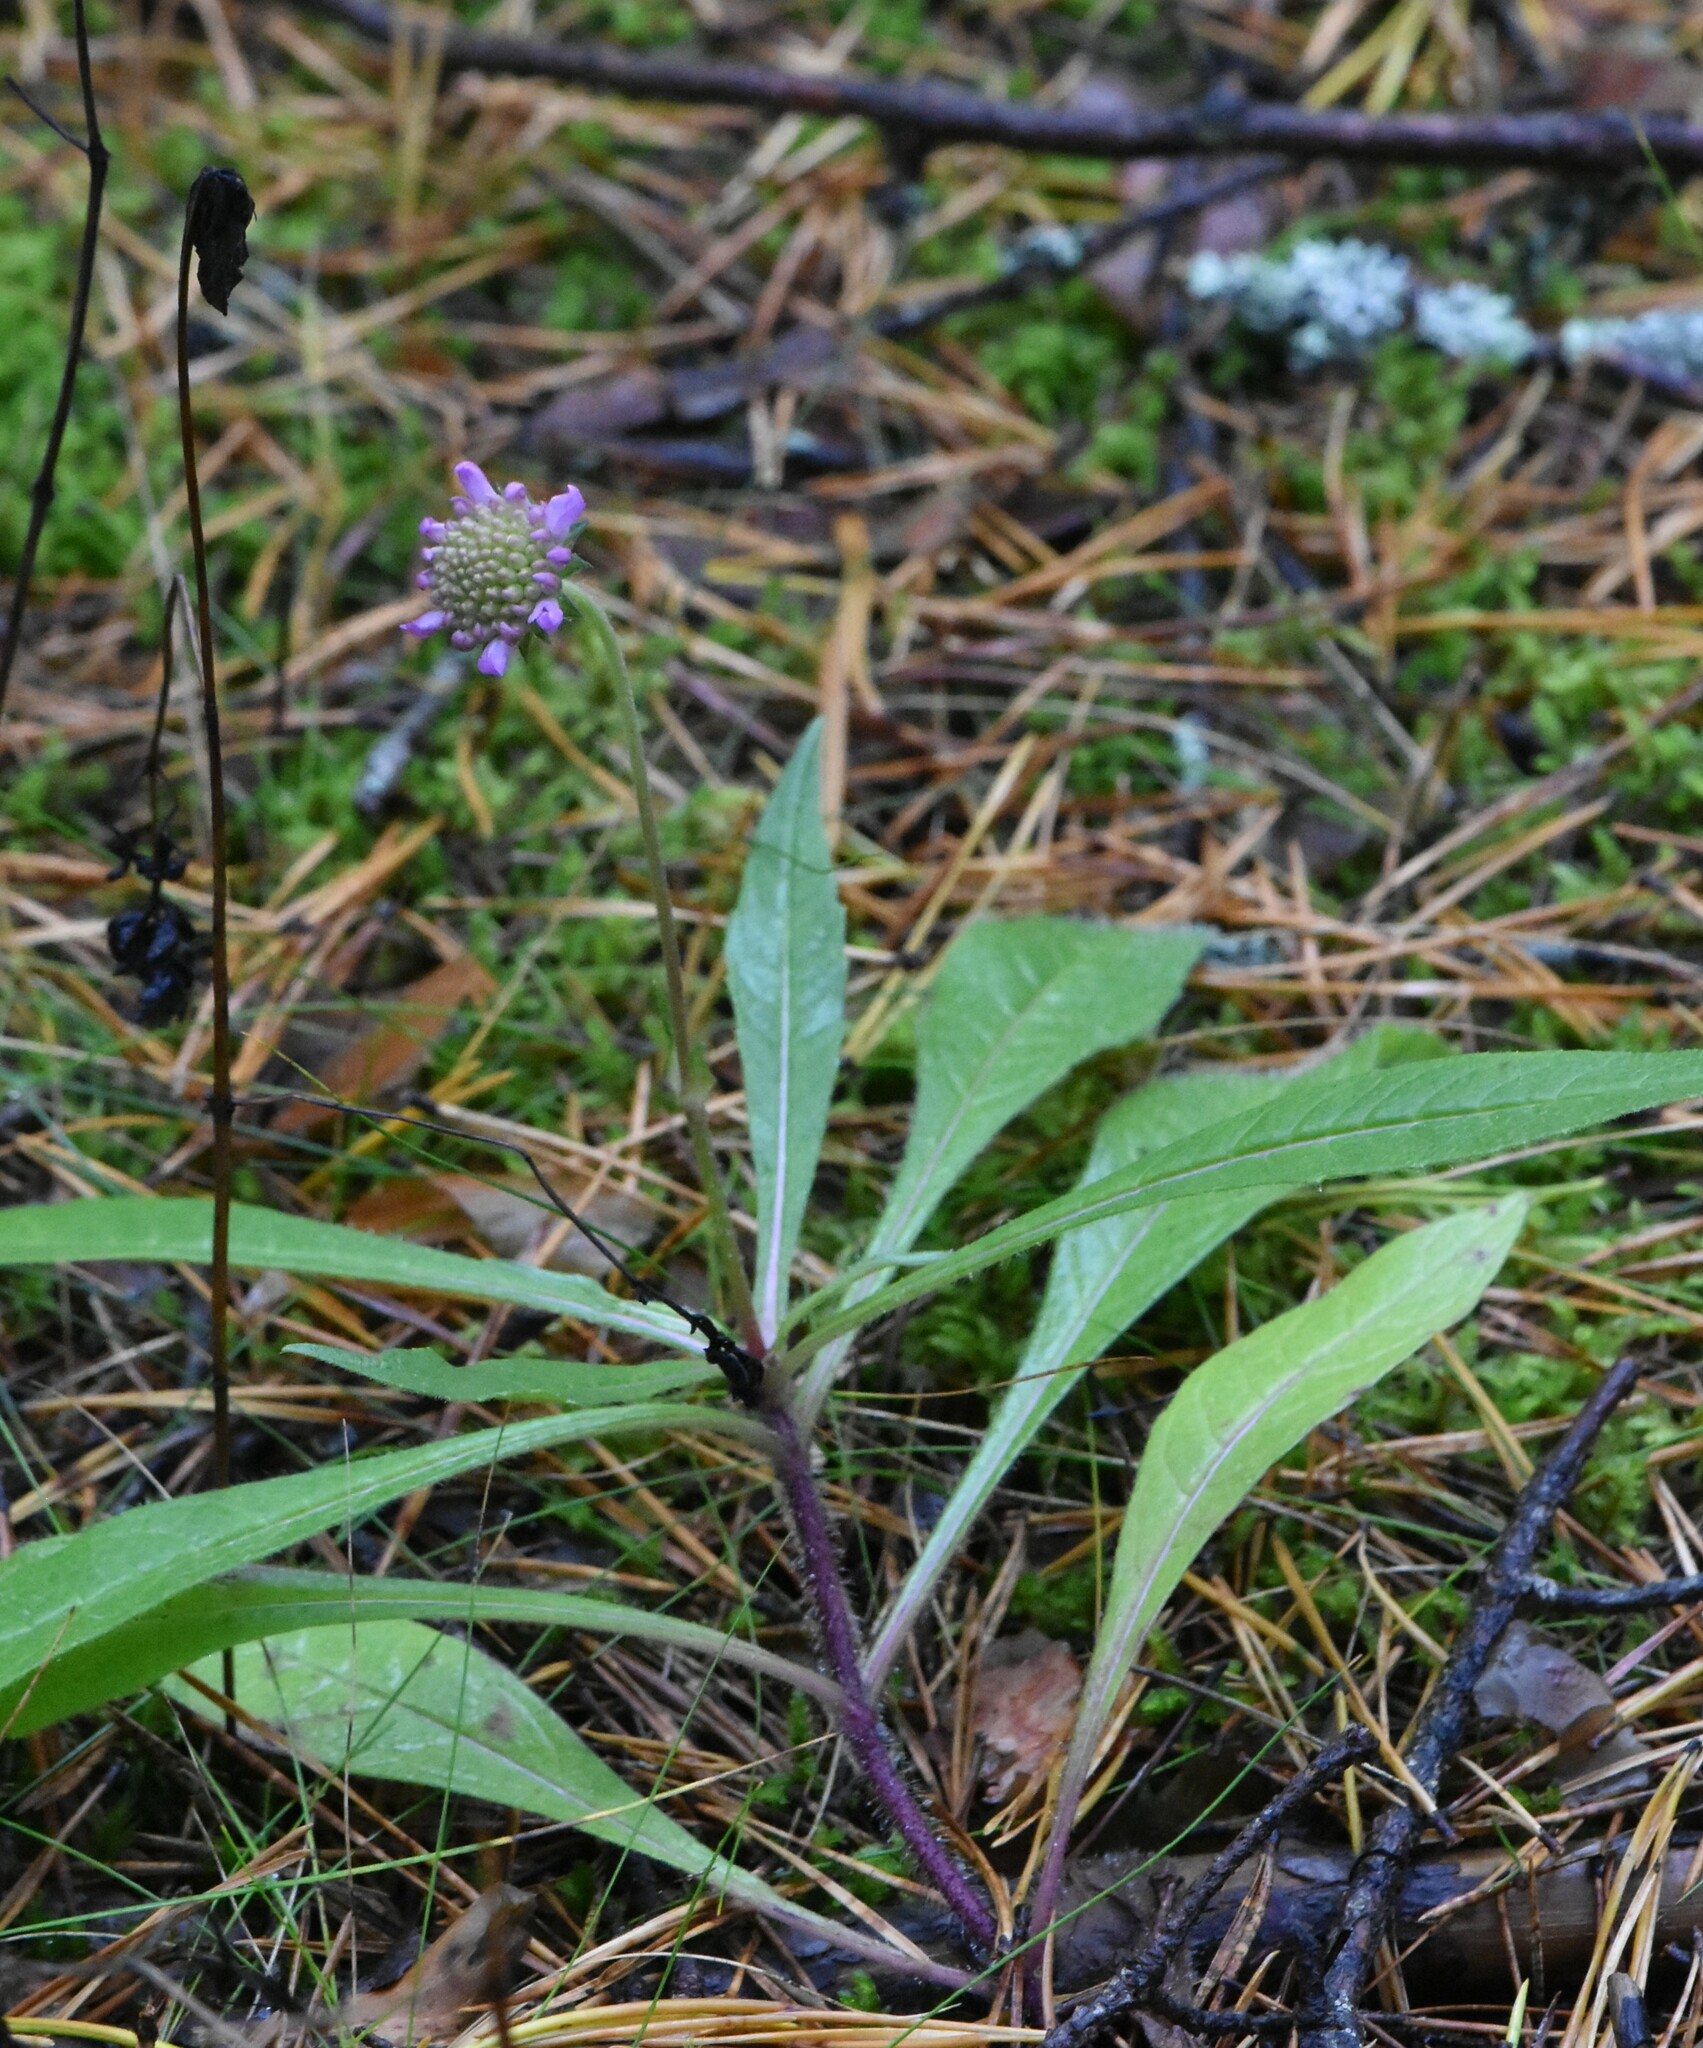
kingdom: Plantae
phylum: Tracheophyta
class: Magnoliopsida
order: Dipsacales
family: Caprifoliaceae
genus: Knautia
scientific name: Knautia arvensis
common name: Field scabiosa
